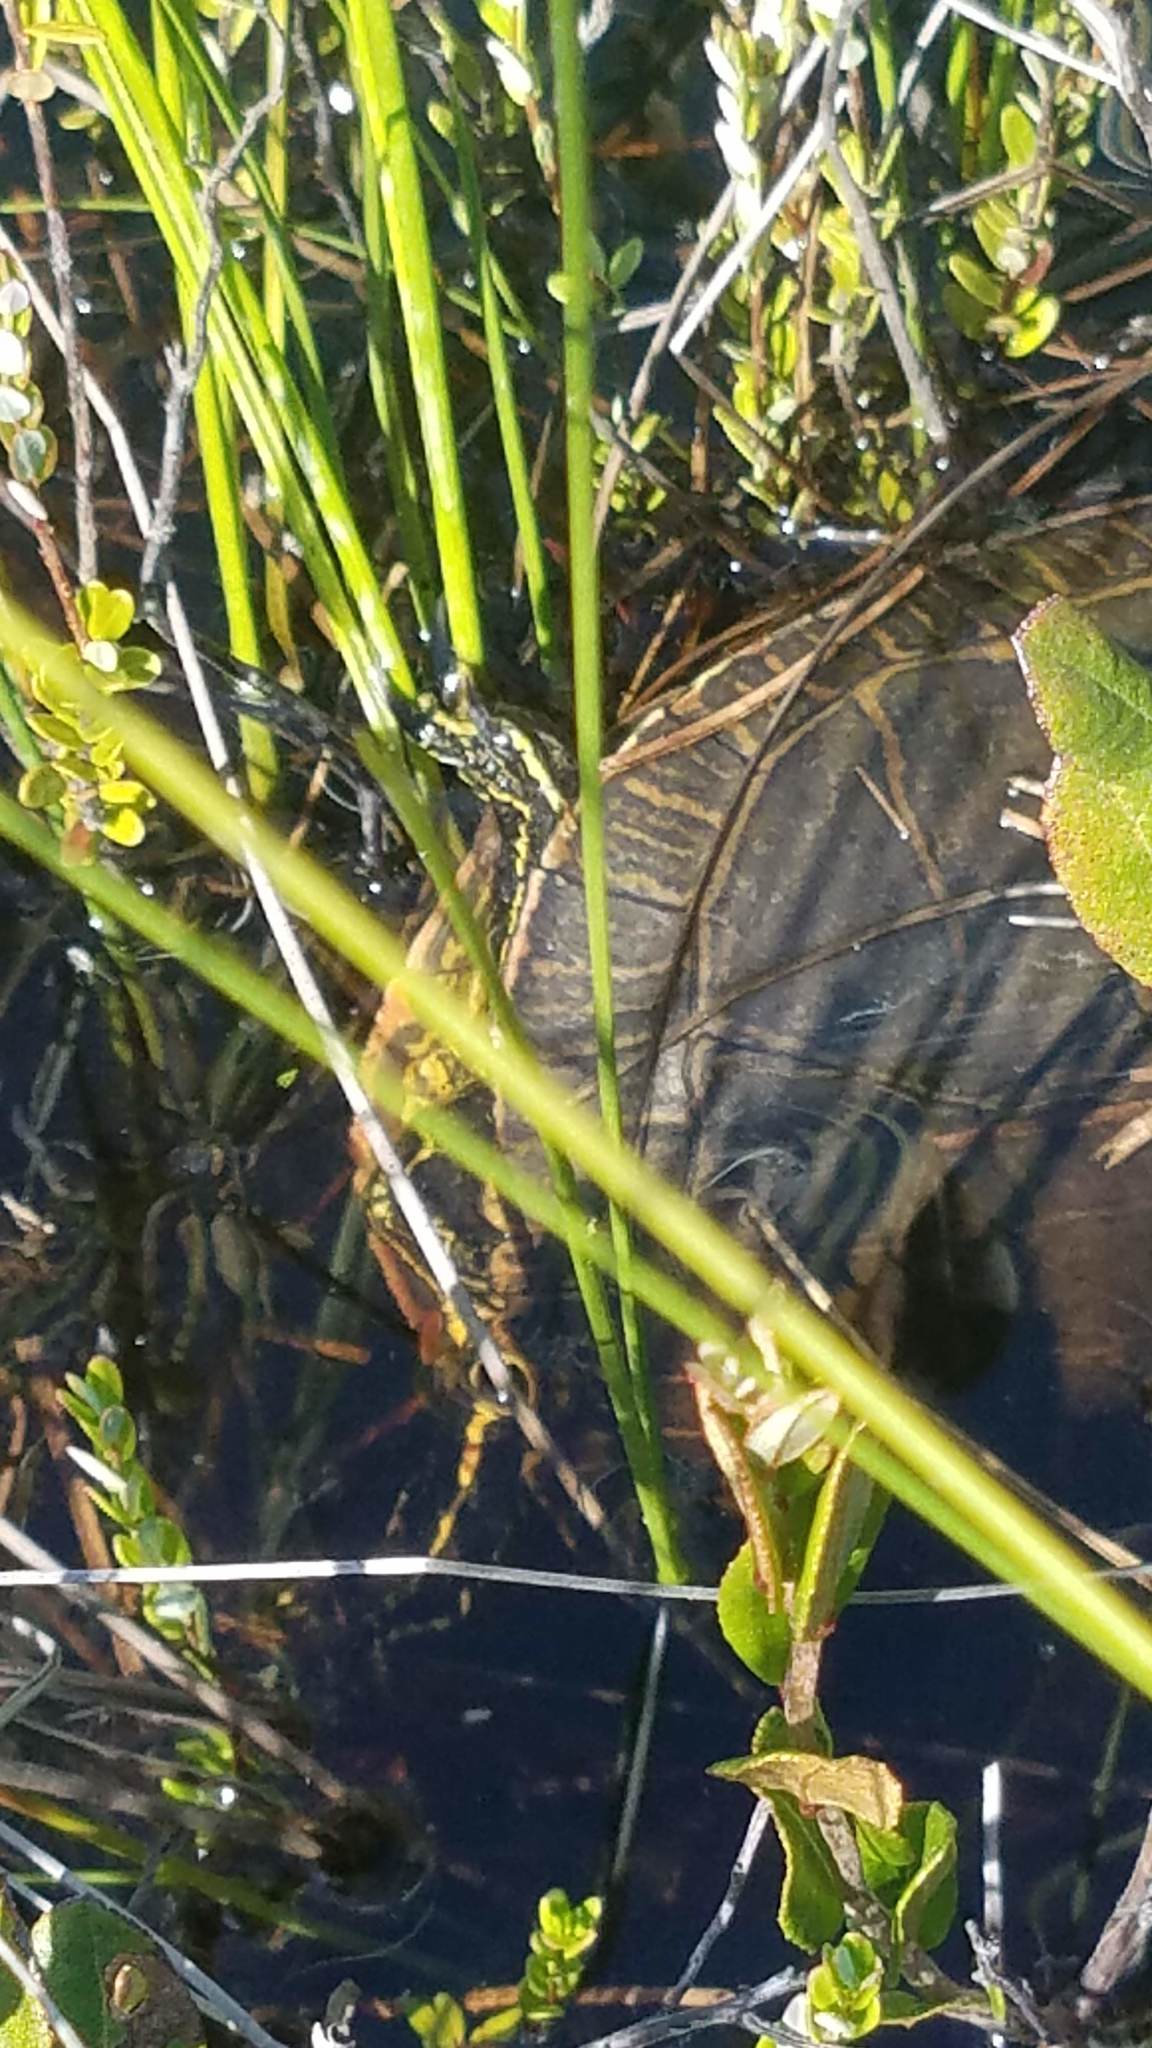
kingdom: Animalia
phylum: Chordata
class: Testudines
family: Emydidae
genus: Chrysemys
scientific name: Chrysemys picta
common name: Painted turtle
